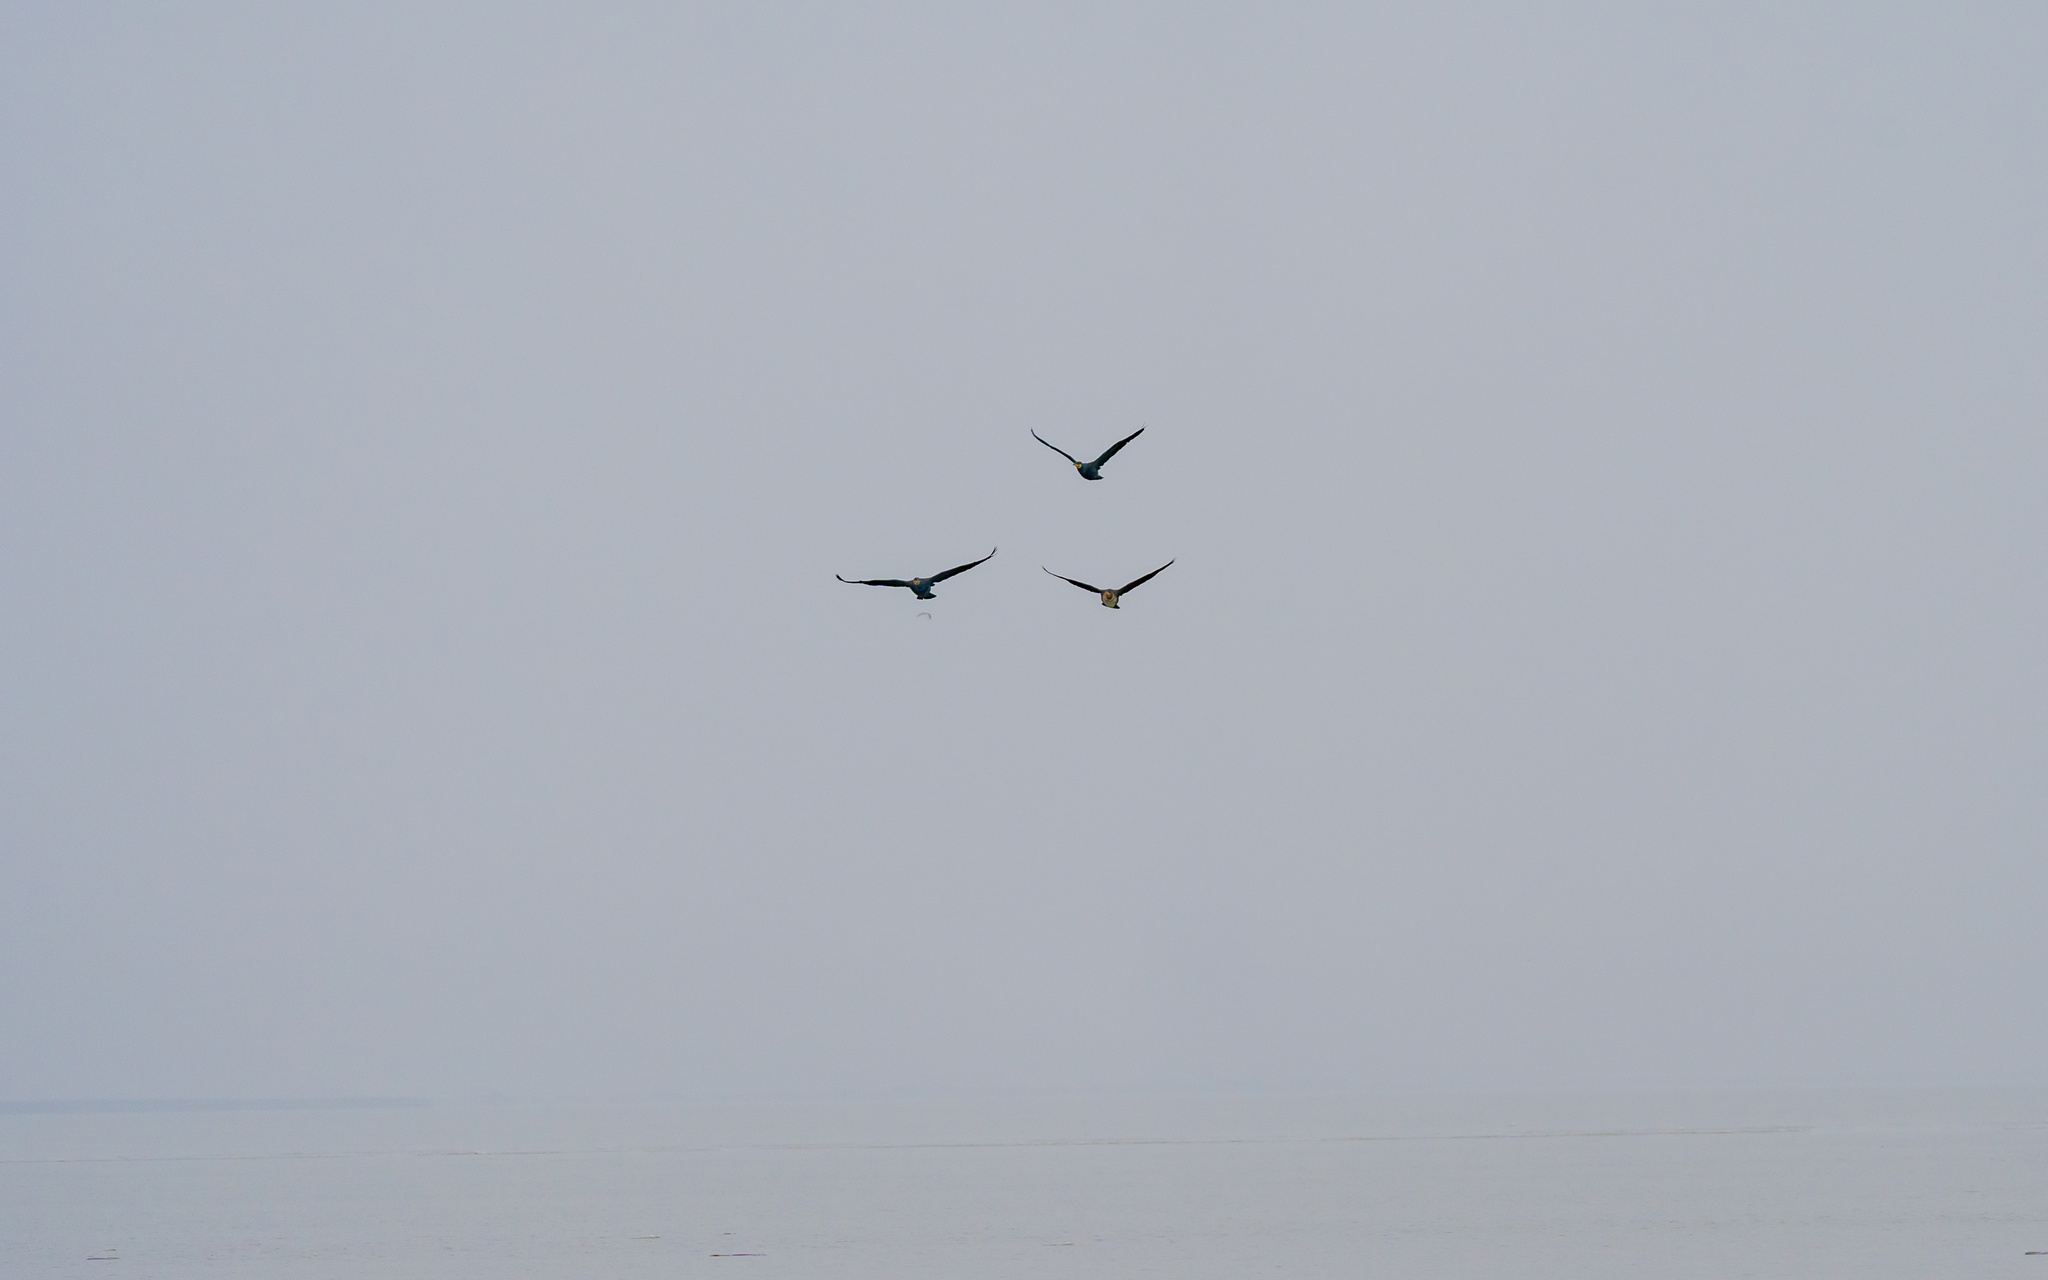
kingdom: Animalia
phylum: Chordata
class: Aves
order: Suliformes
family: Phalacrocoracidae
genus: Phalacrocorax
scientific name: Phalacrocorax carbo
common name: Great cormorant
